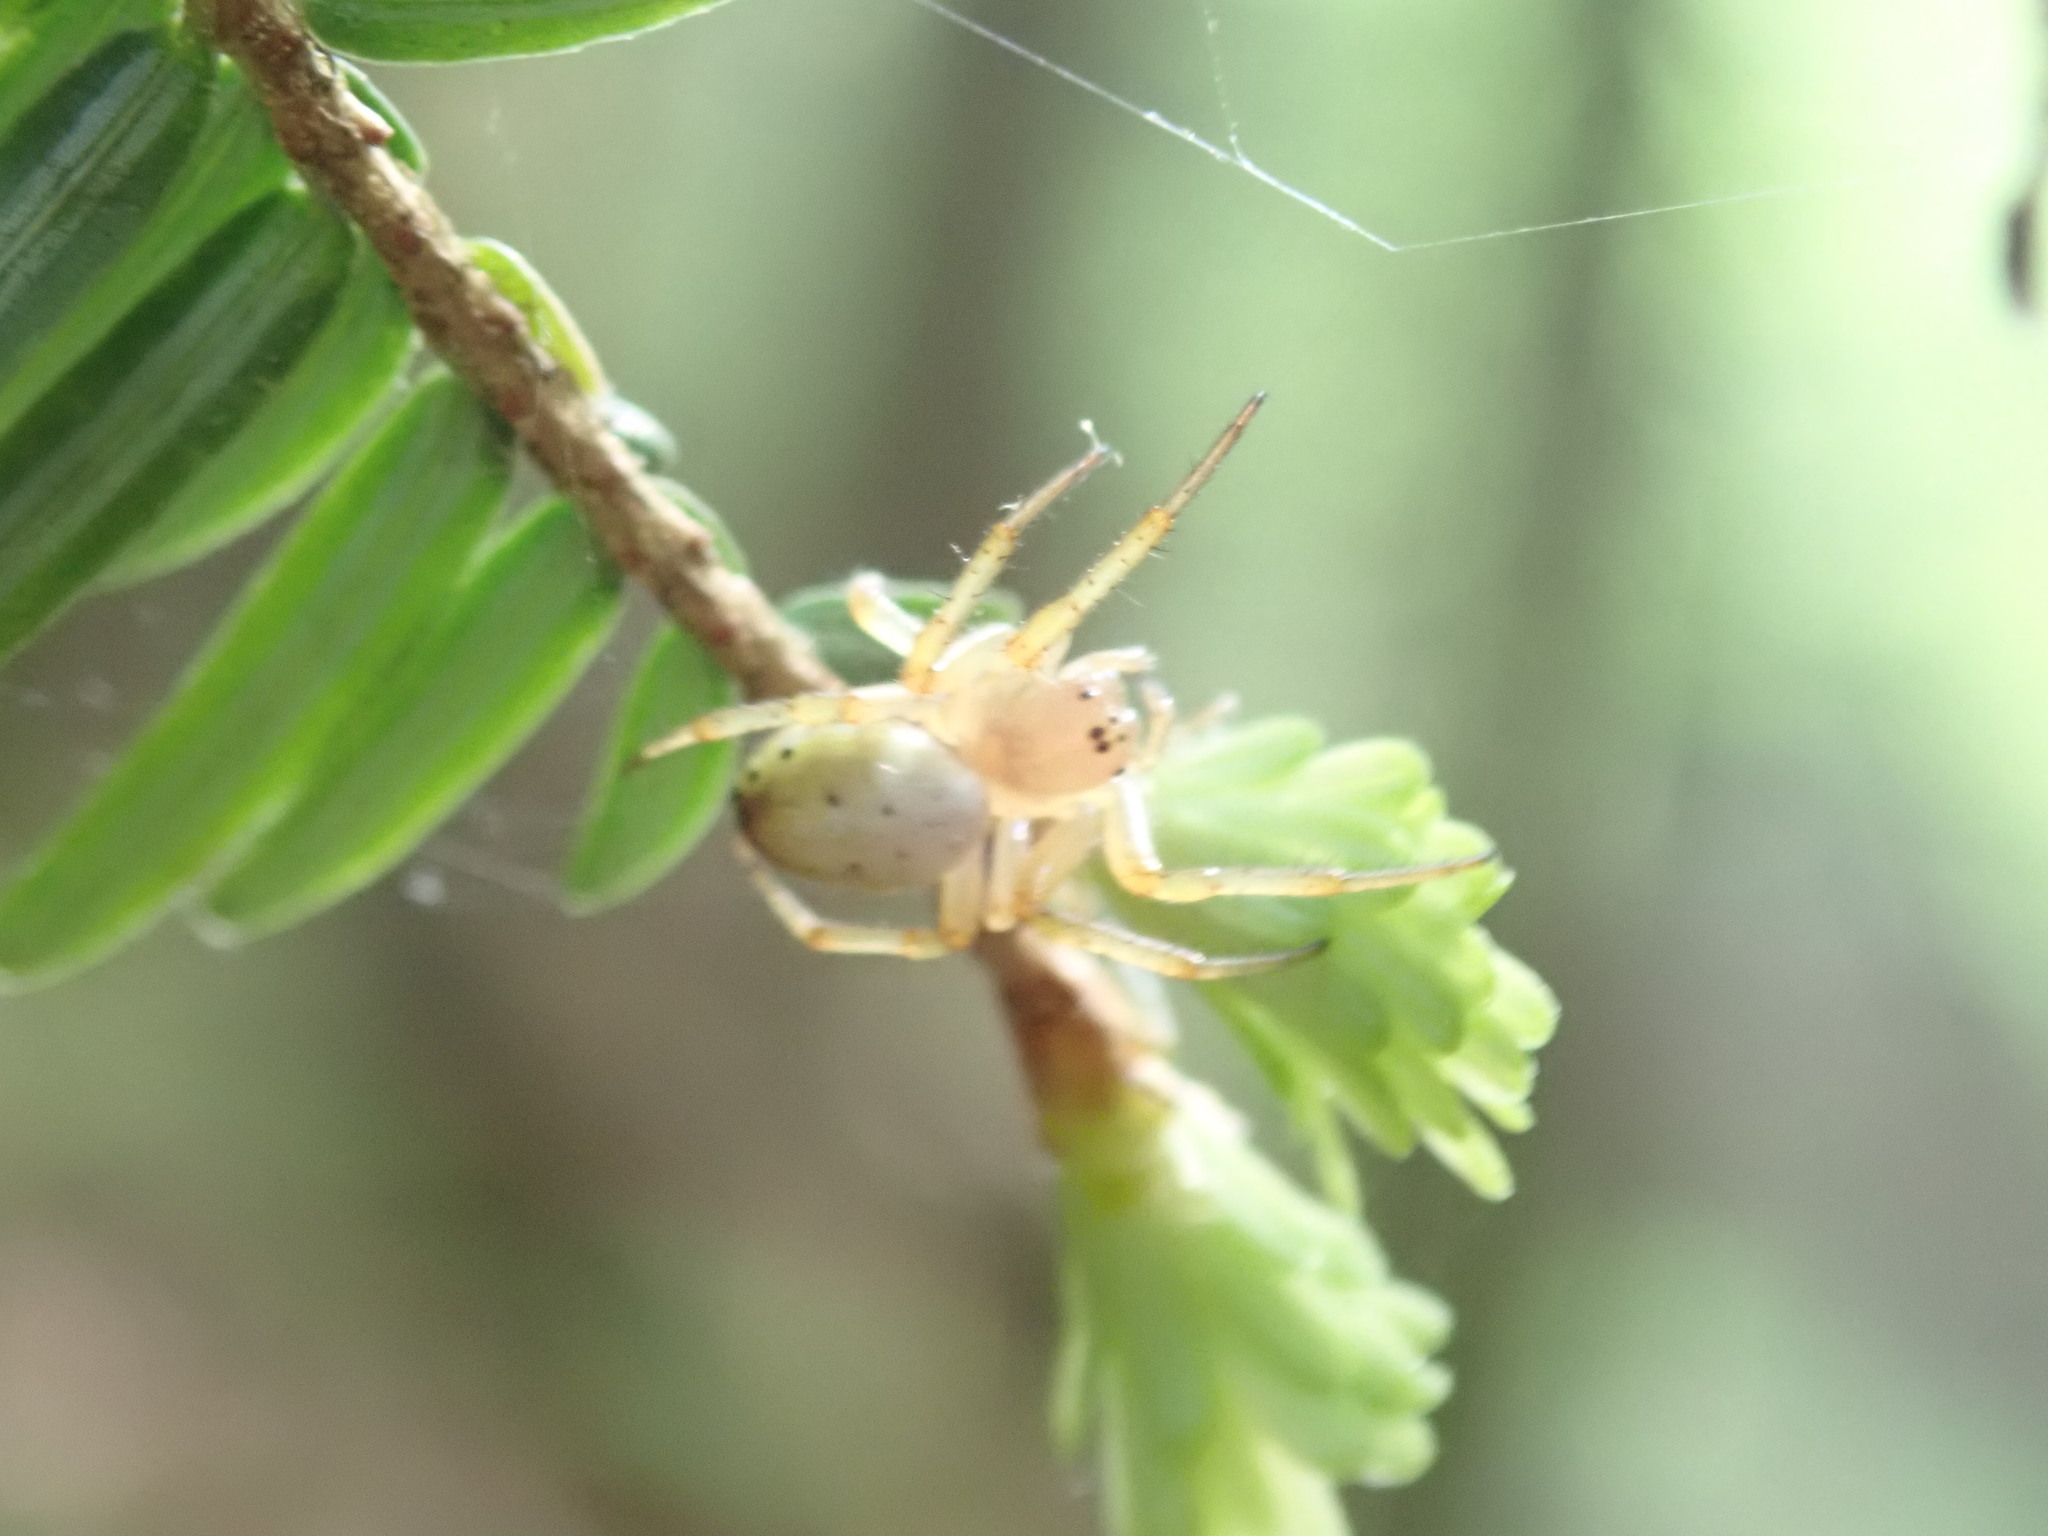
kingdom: Animalia
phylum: Arthropoda
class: Arachnida
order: Araneae
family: Araneidae
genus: Araniella
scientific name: Araniella displicata
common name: Sixspotted orb weaver
